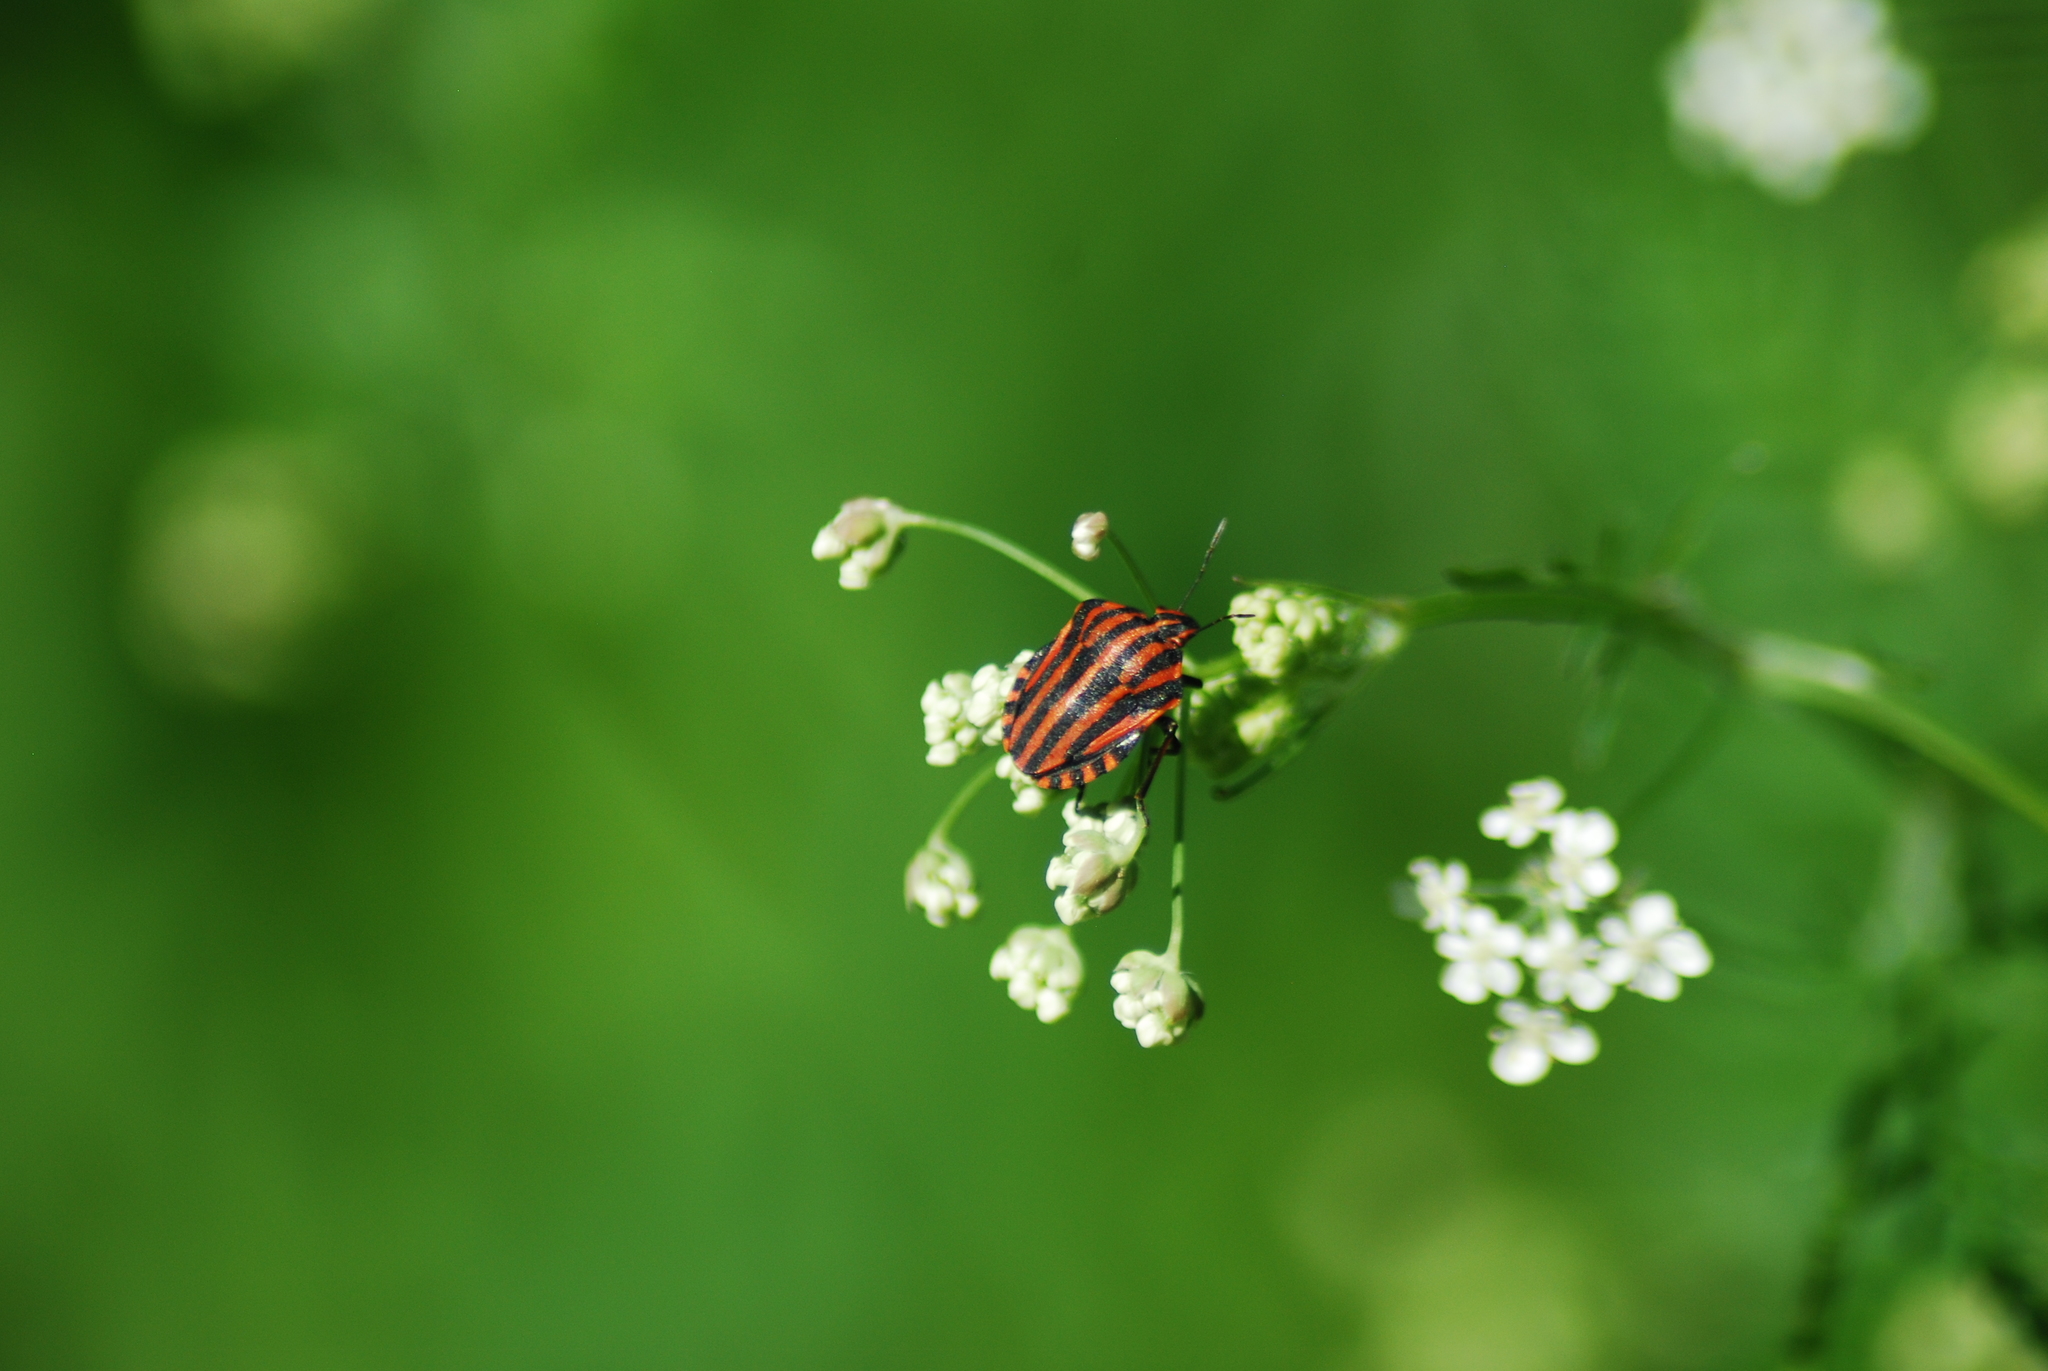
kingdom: Animalia
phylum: Arthropoda
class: Insecta
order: Hemiptera
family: Pentatomidae
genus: Graphosoma
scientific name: Graphosoma italicum
